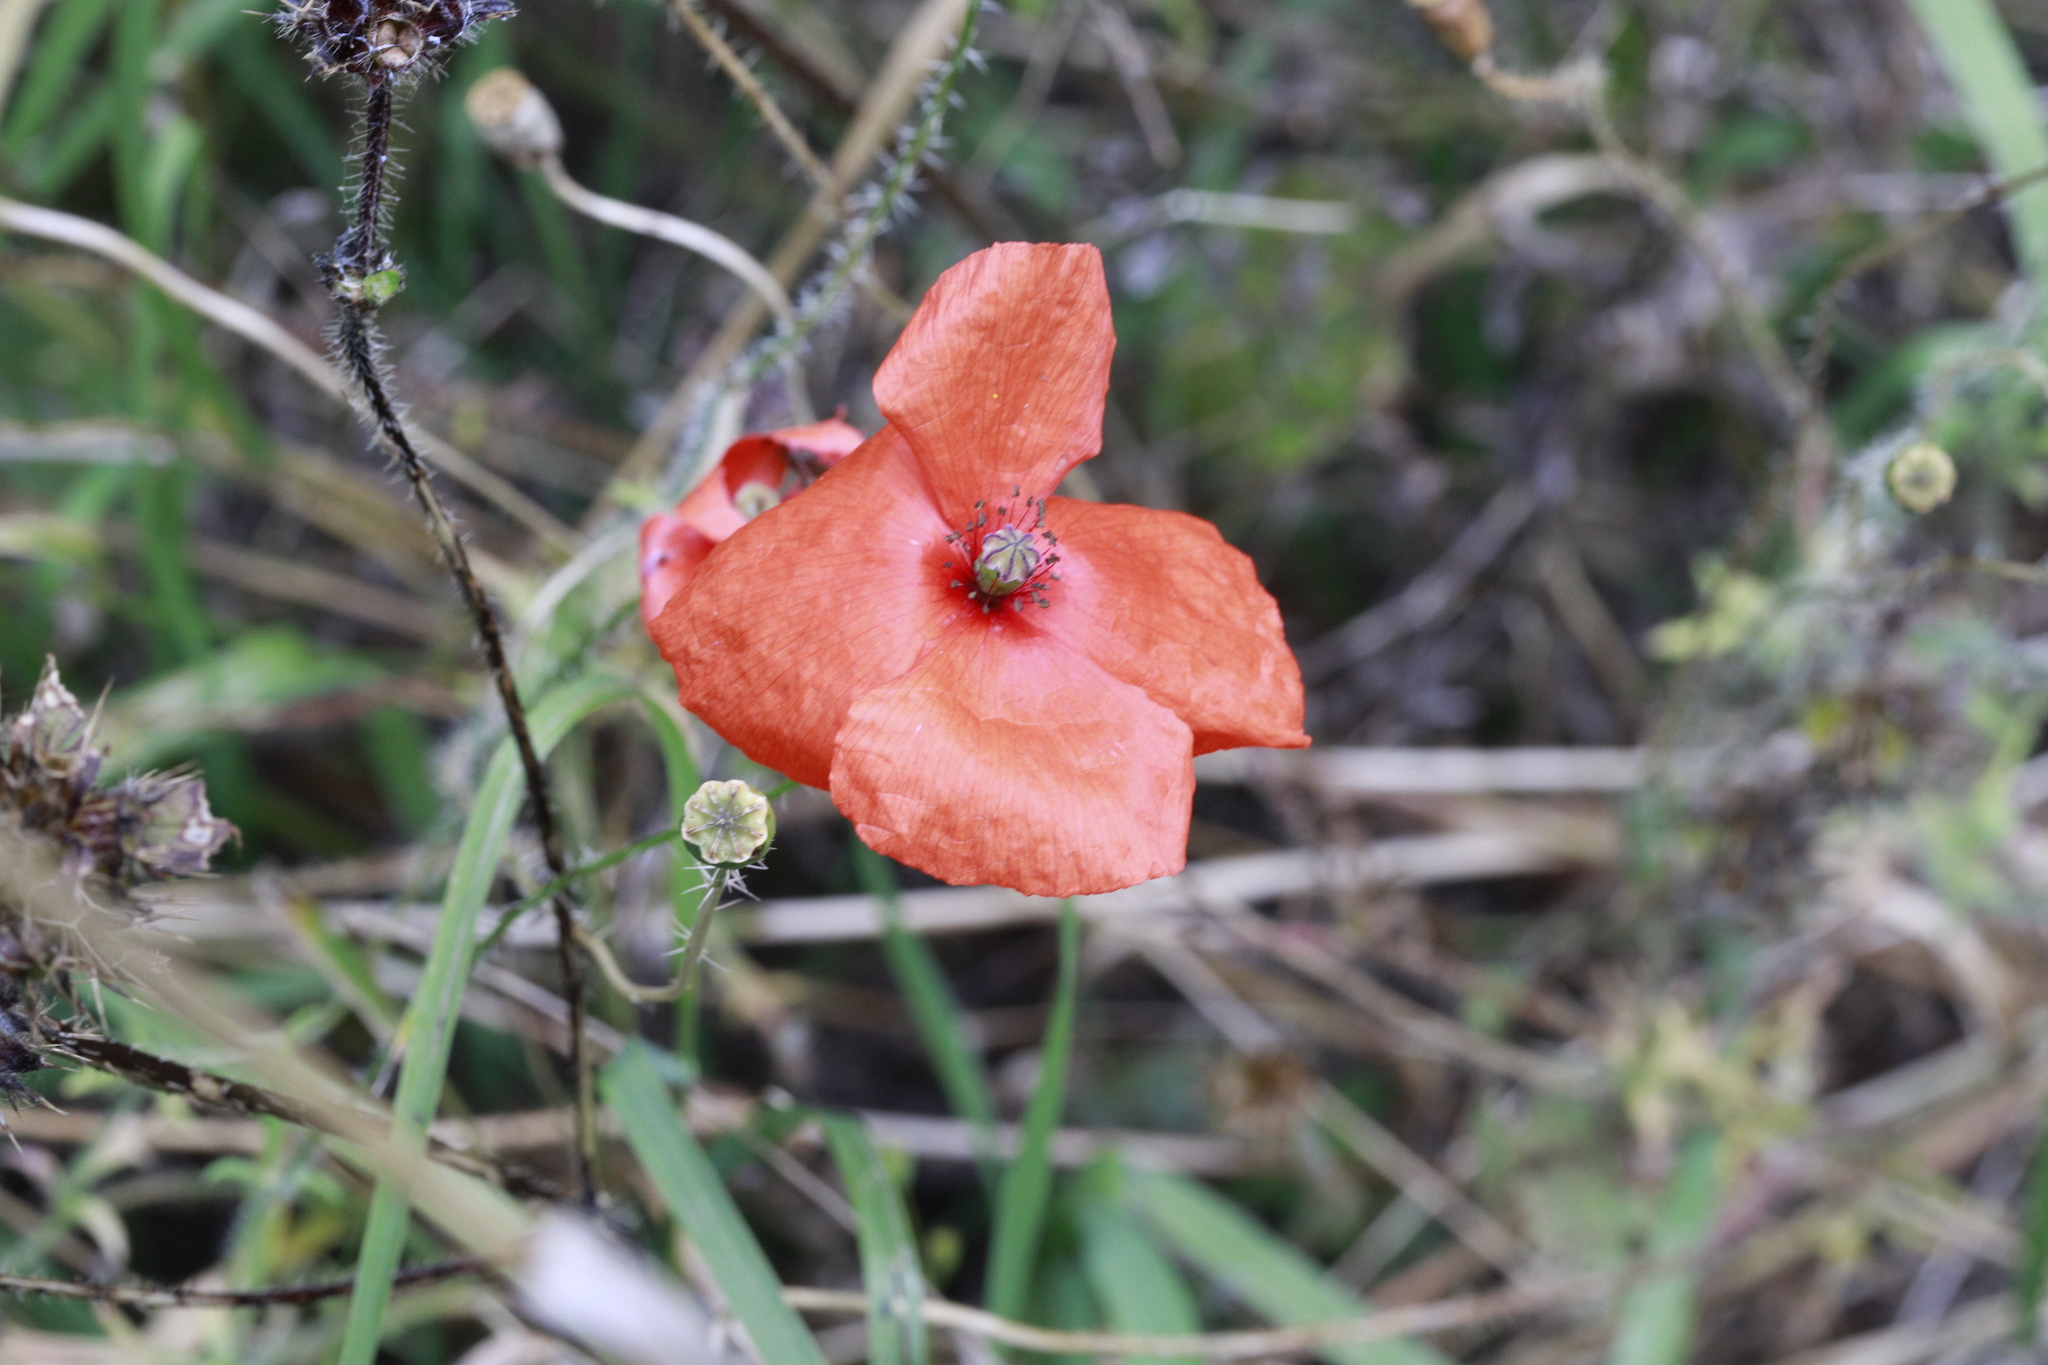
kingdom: Plantae
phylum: Tracheophyta
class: Magnoliopsida
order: Ranunculales
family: Papaveraceae
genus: Papaver
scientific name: Papaver rhoeas
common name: Corn poppy
